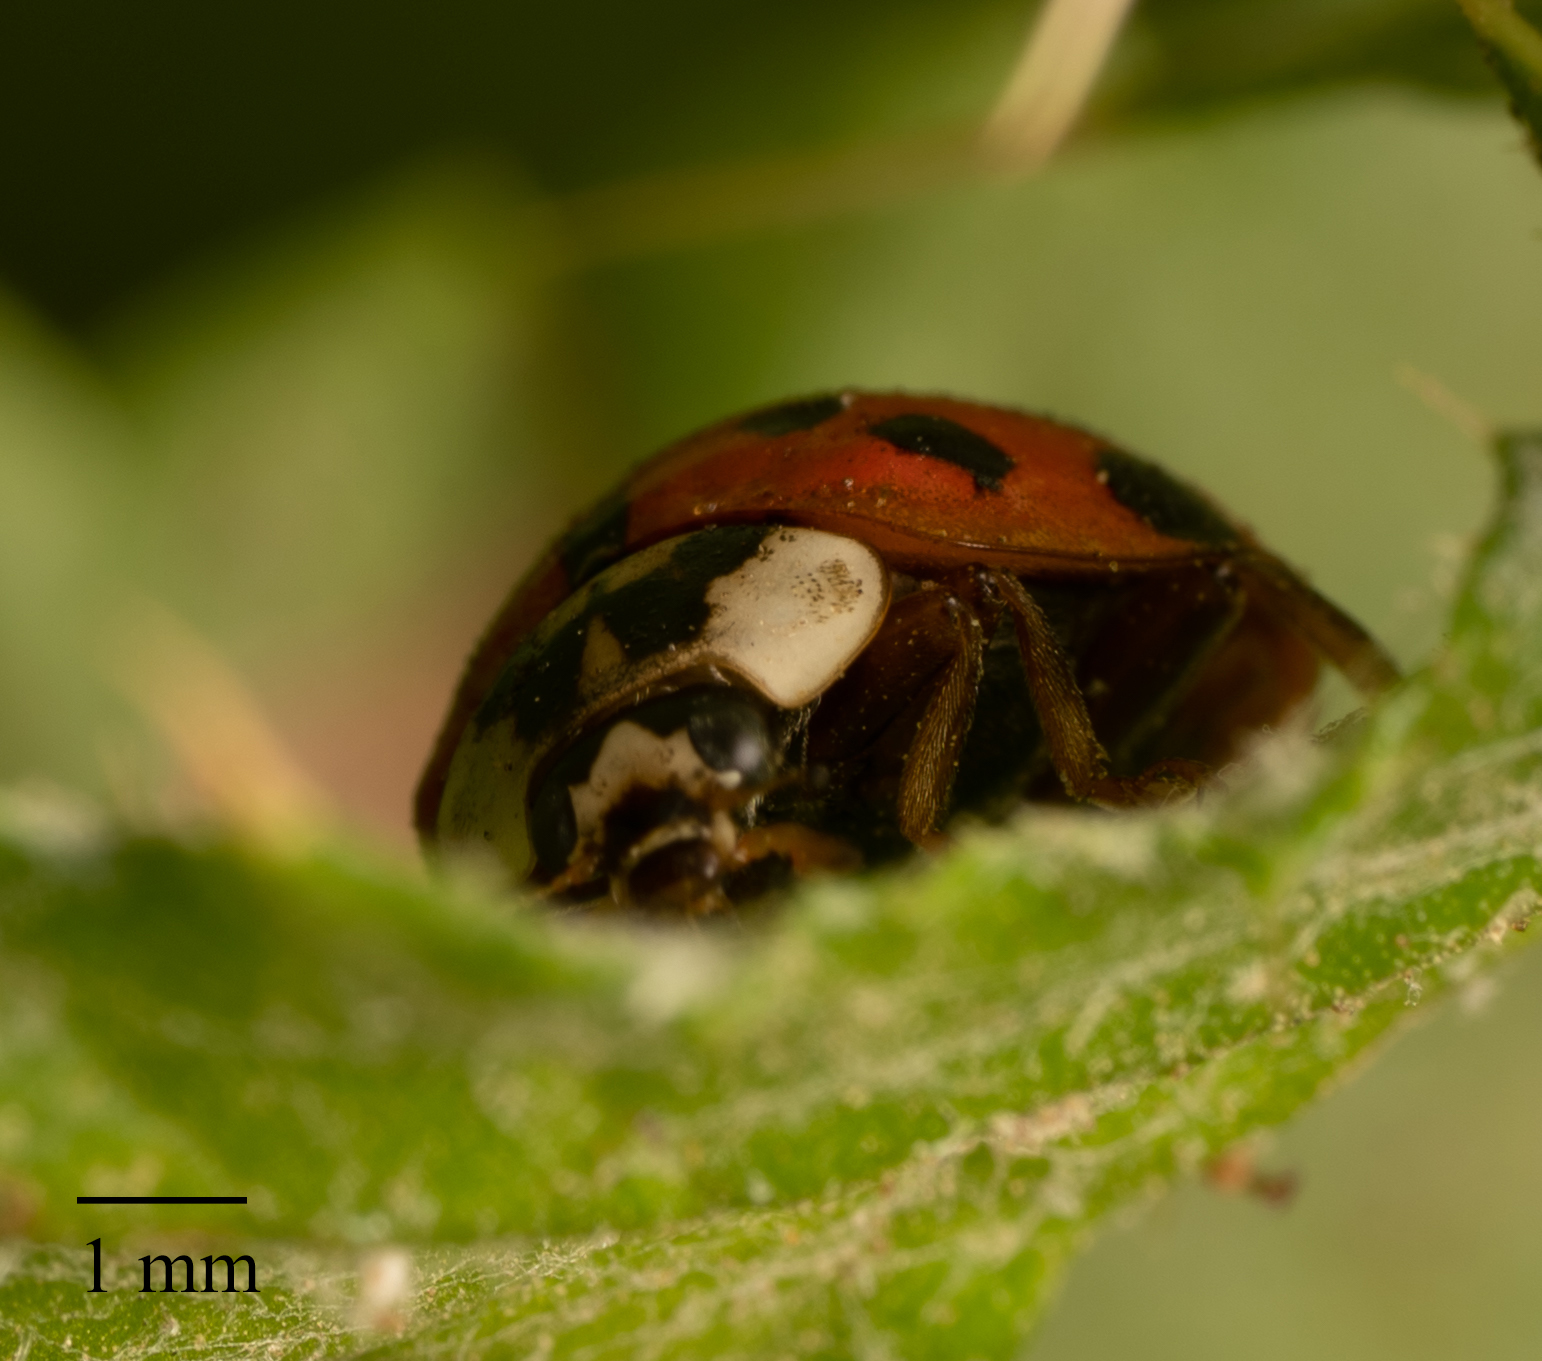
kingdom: Animalia
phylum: Arthropoda
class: Insecta
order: Coleoptera
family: Coccinellidae
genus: Harmonia
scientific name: Harmonia axyridis
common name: Harlequin ladybird
